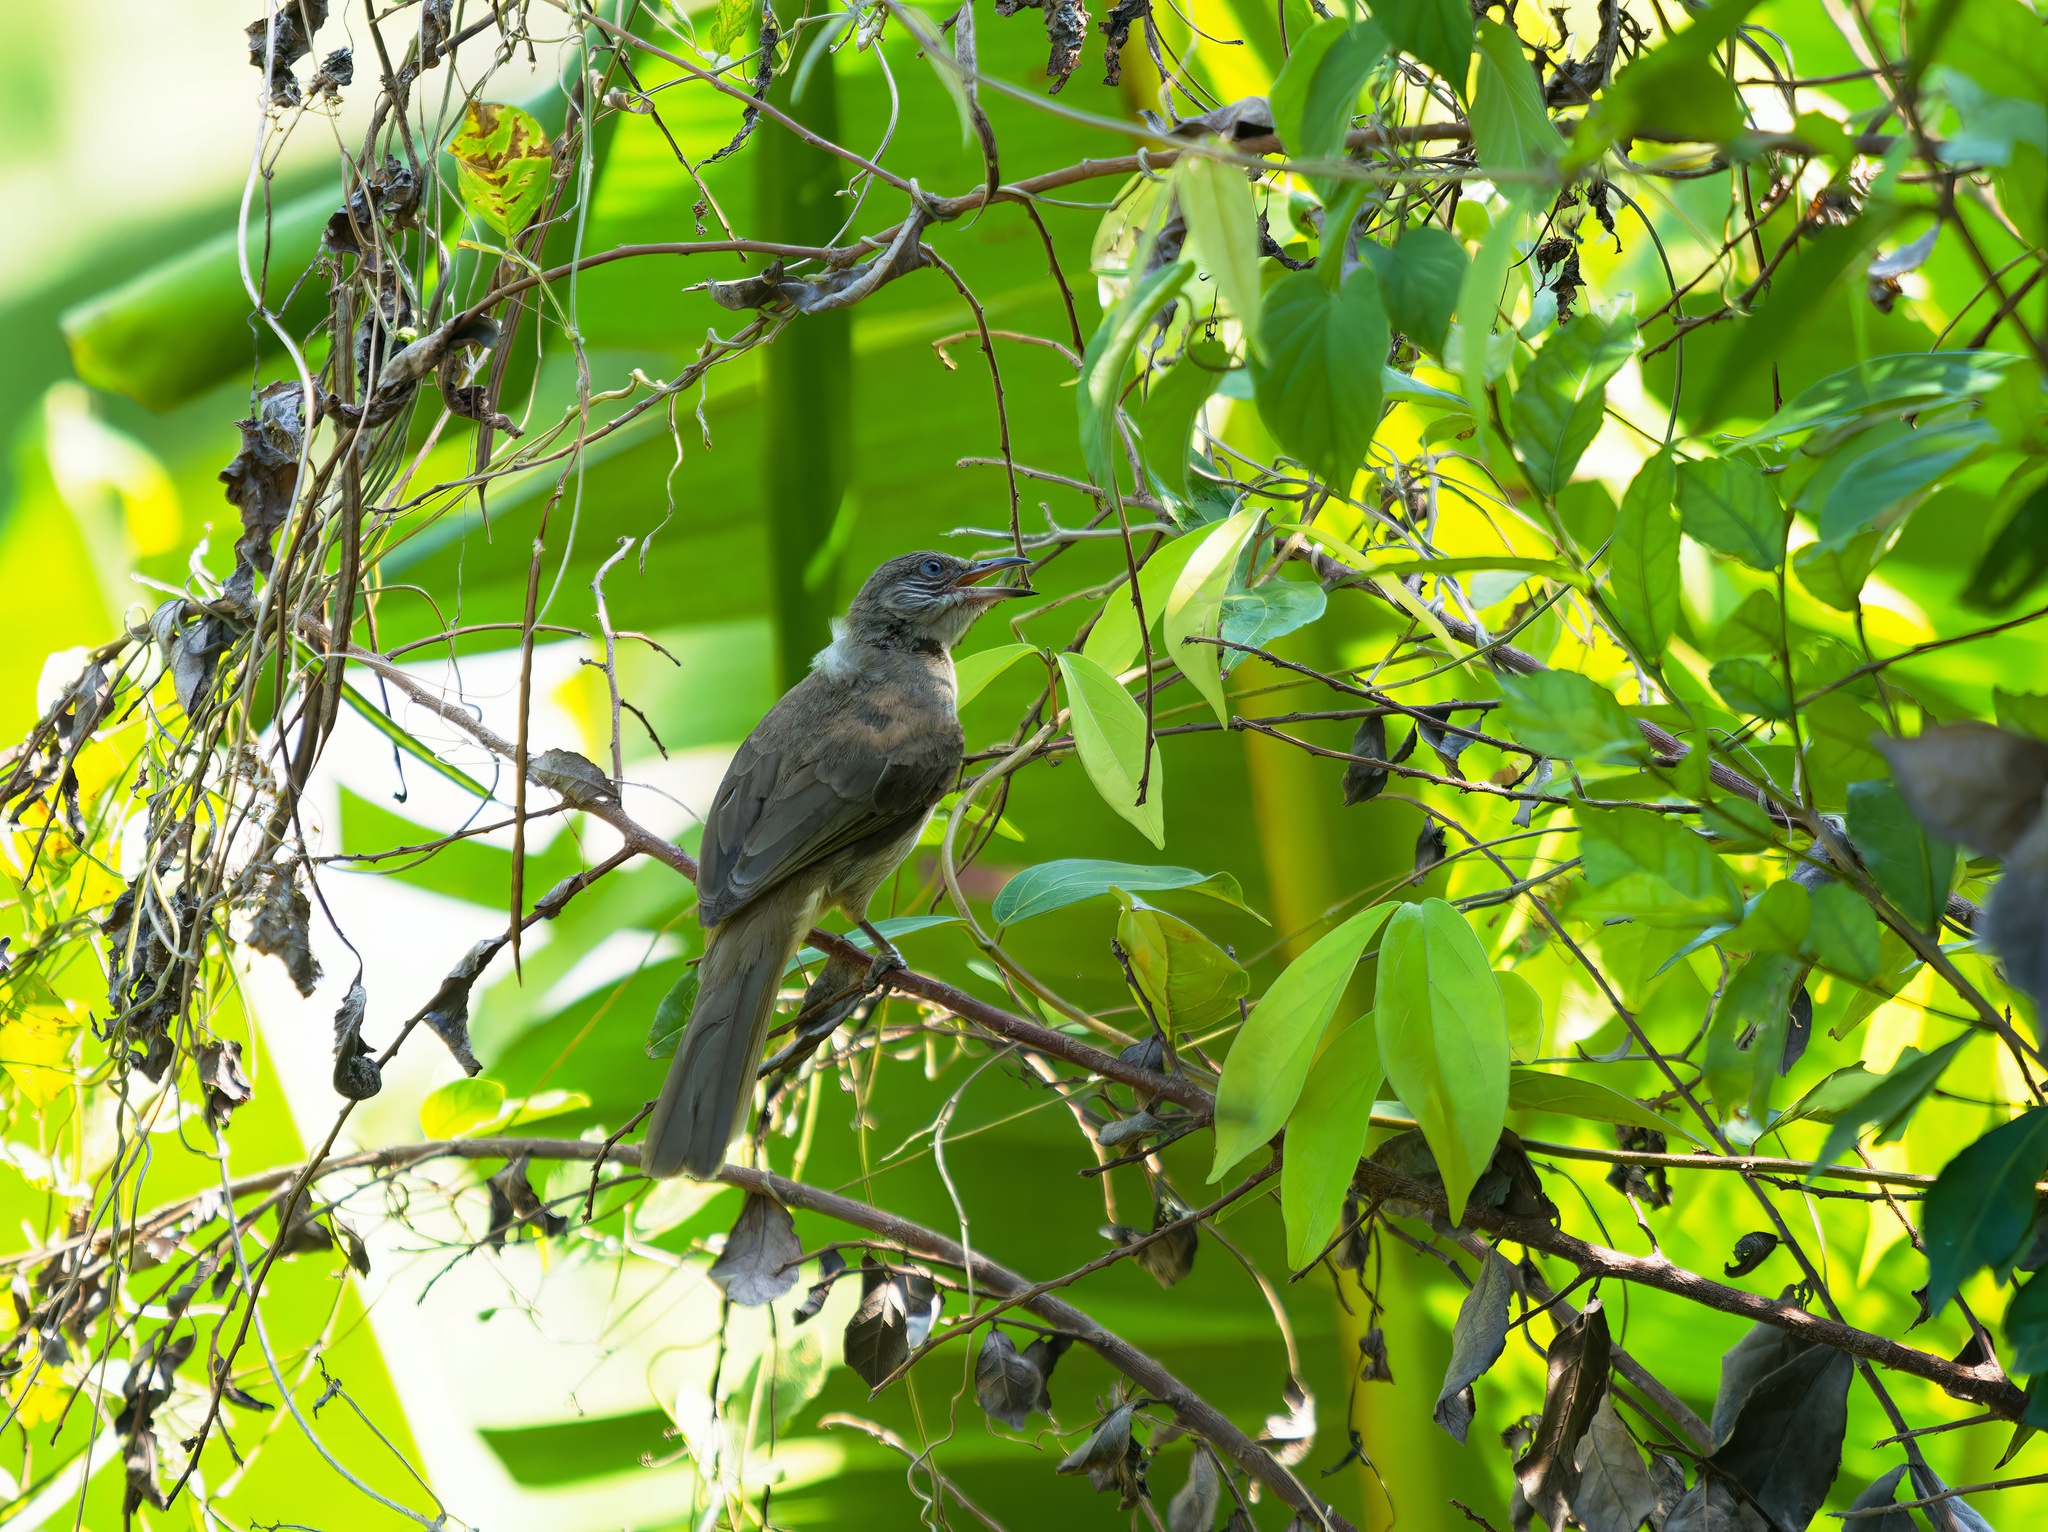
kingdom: Animalia
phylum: Chordata
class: Aves
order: Passeriformes
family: Pycnonotidae
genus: Pycnonotus
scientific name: Pycnonotus blanfordi
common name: Streak-eared bulbul
